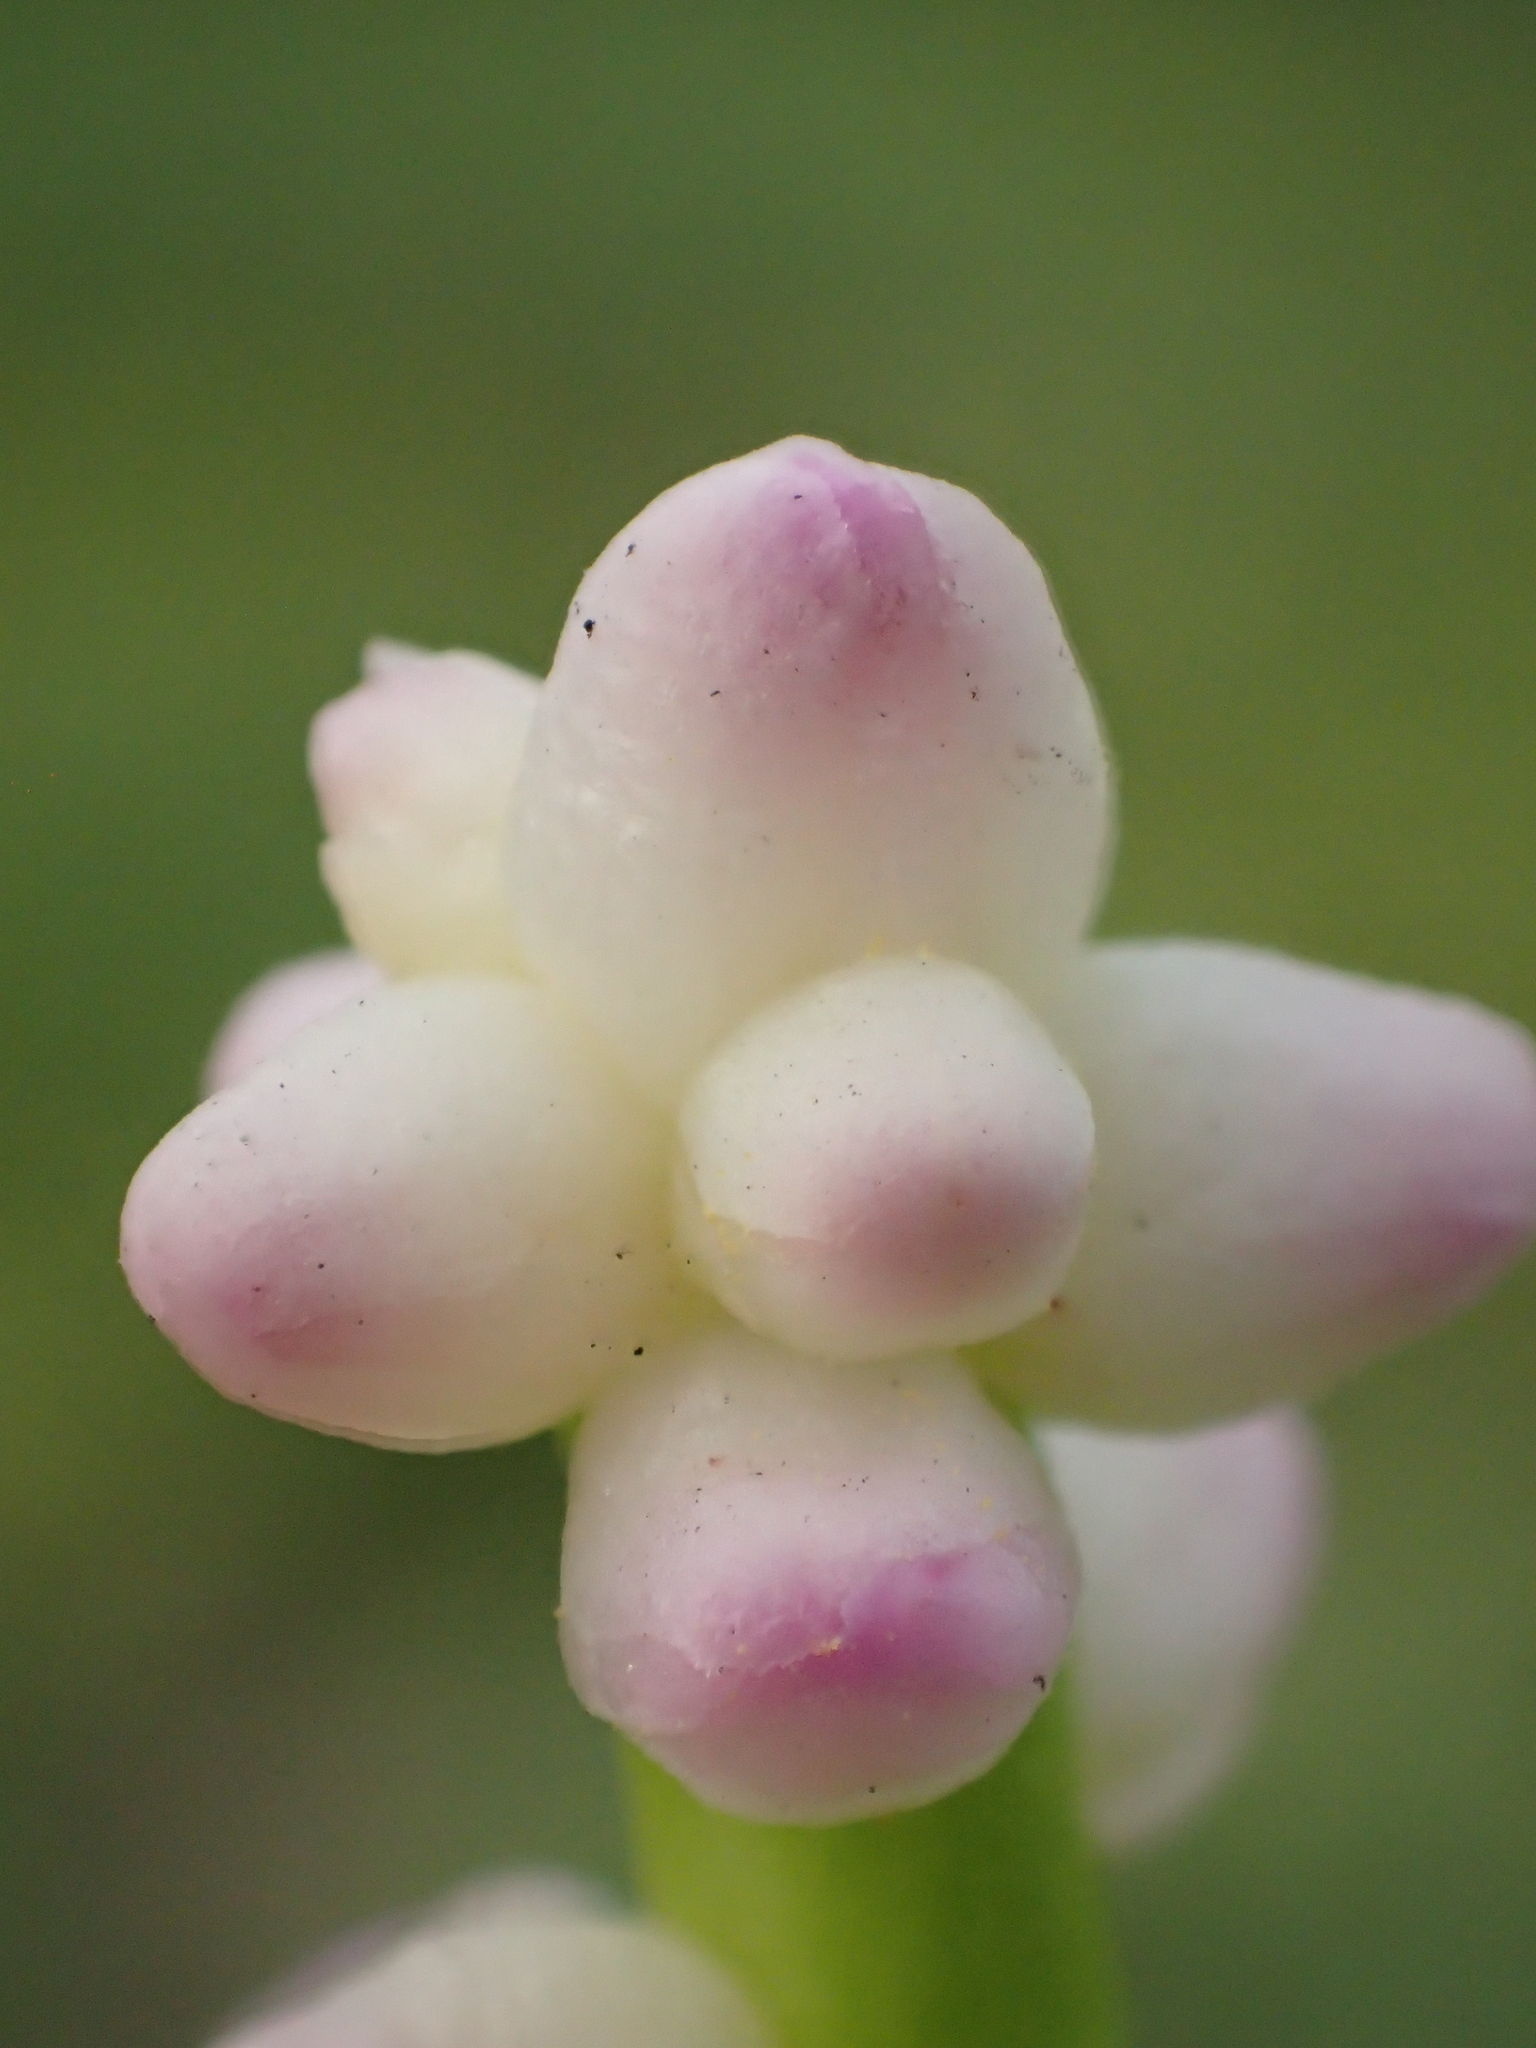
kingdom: Plantae
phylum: Tracheophyta
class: Magnoliopsida
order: Caryophyllales
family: Basellaceae
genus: Basella
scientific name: Basella alba
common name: Indian spinach
